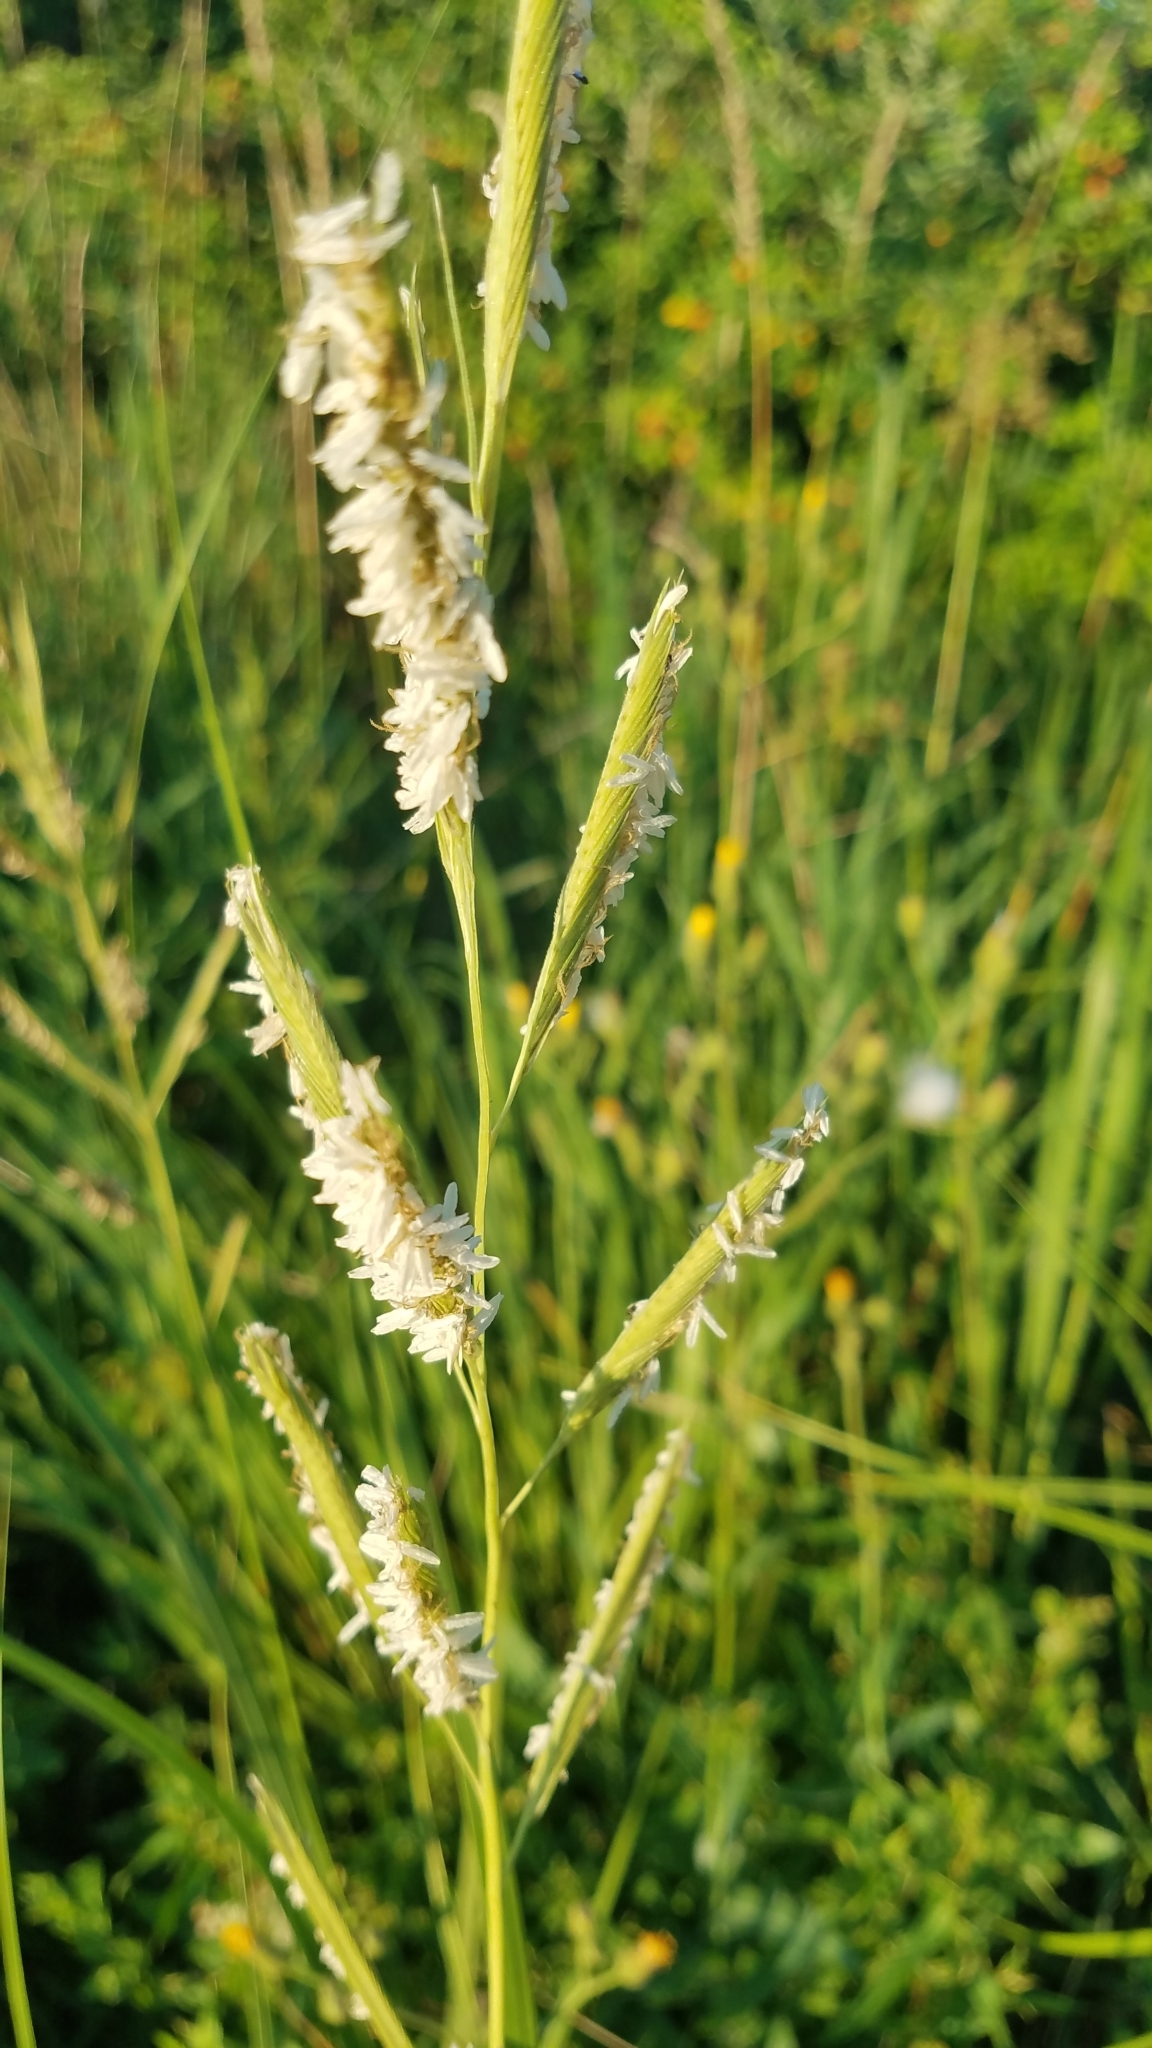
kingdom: Plantae
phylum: Tracheophyta
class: Liliopsida
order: Poales
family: Poaceae
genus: Sporobolus
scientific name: Sporobolus michauxianus
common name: Freshwater cordgrass
